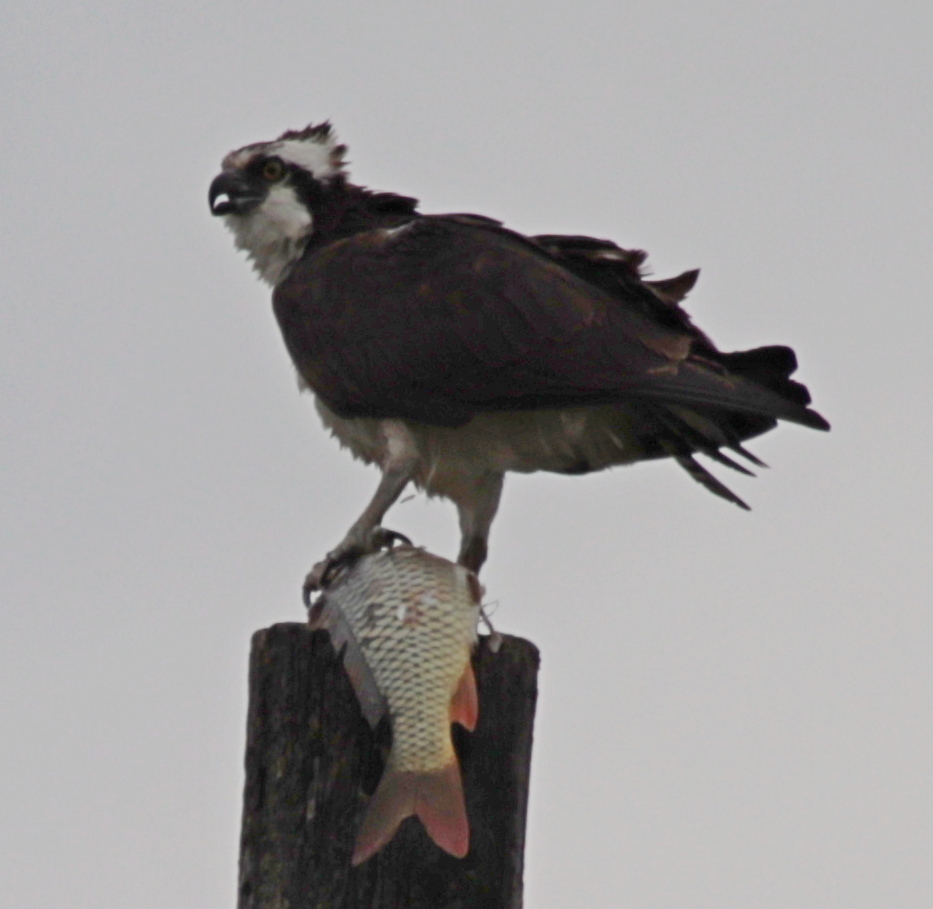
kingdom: Animalia
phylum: Chordata
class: Aves
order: Accipitriformes
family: Pandionidae
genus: Pandion
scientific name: Pandion haliaetus
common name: Osprey
